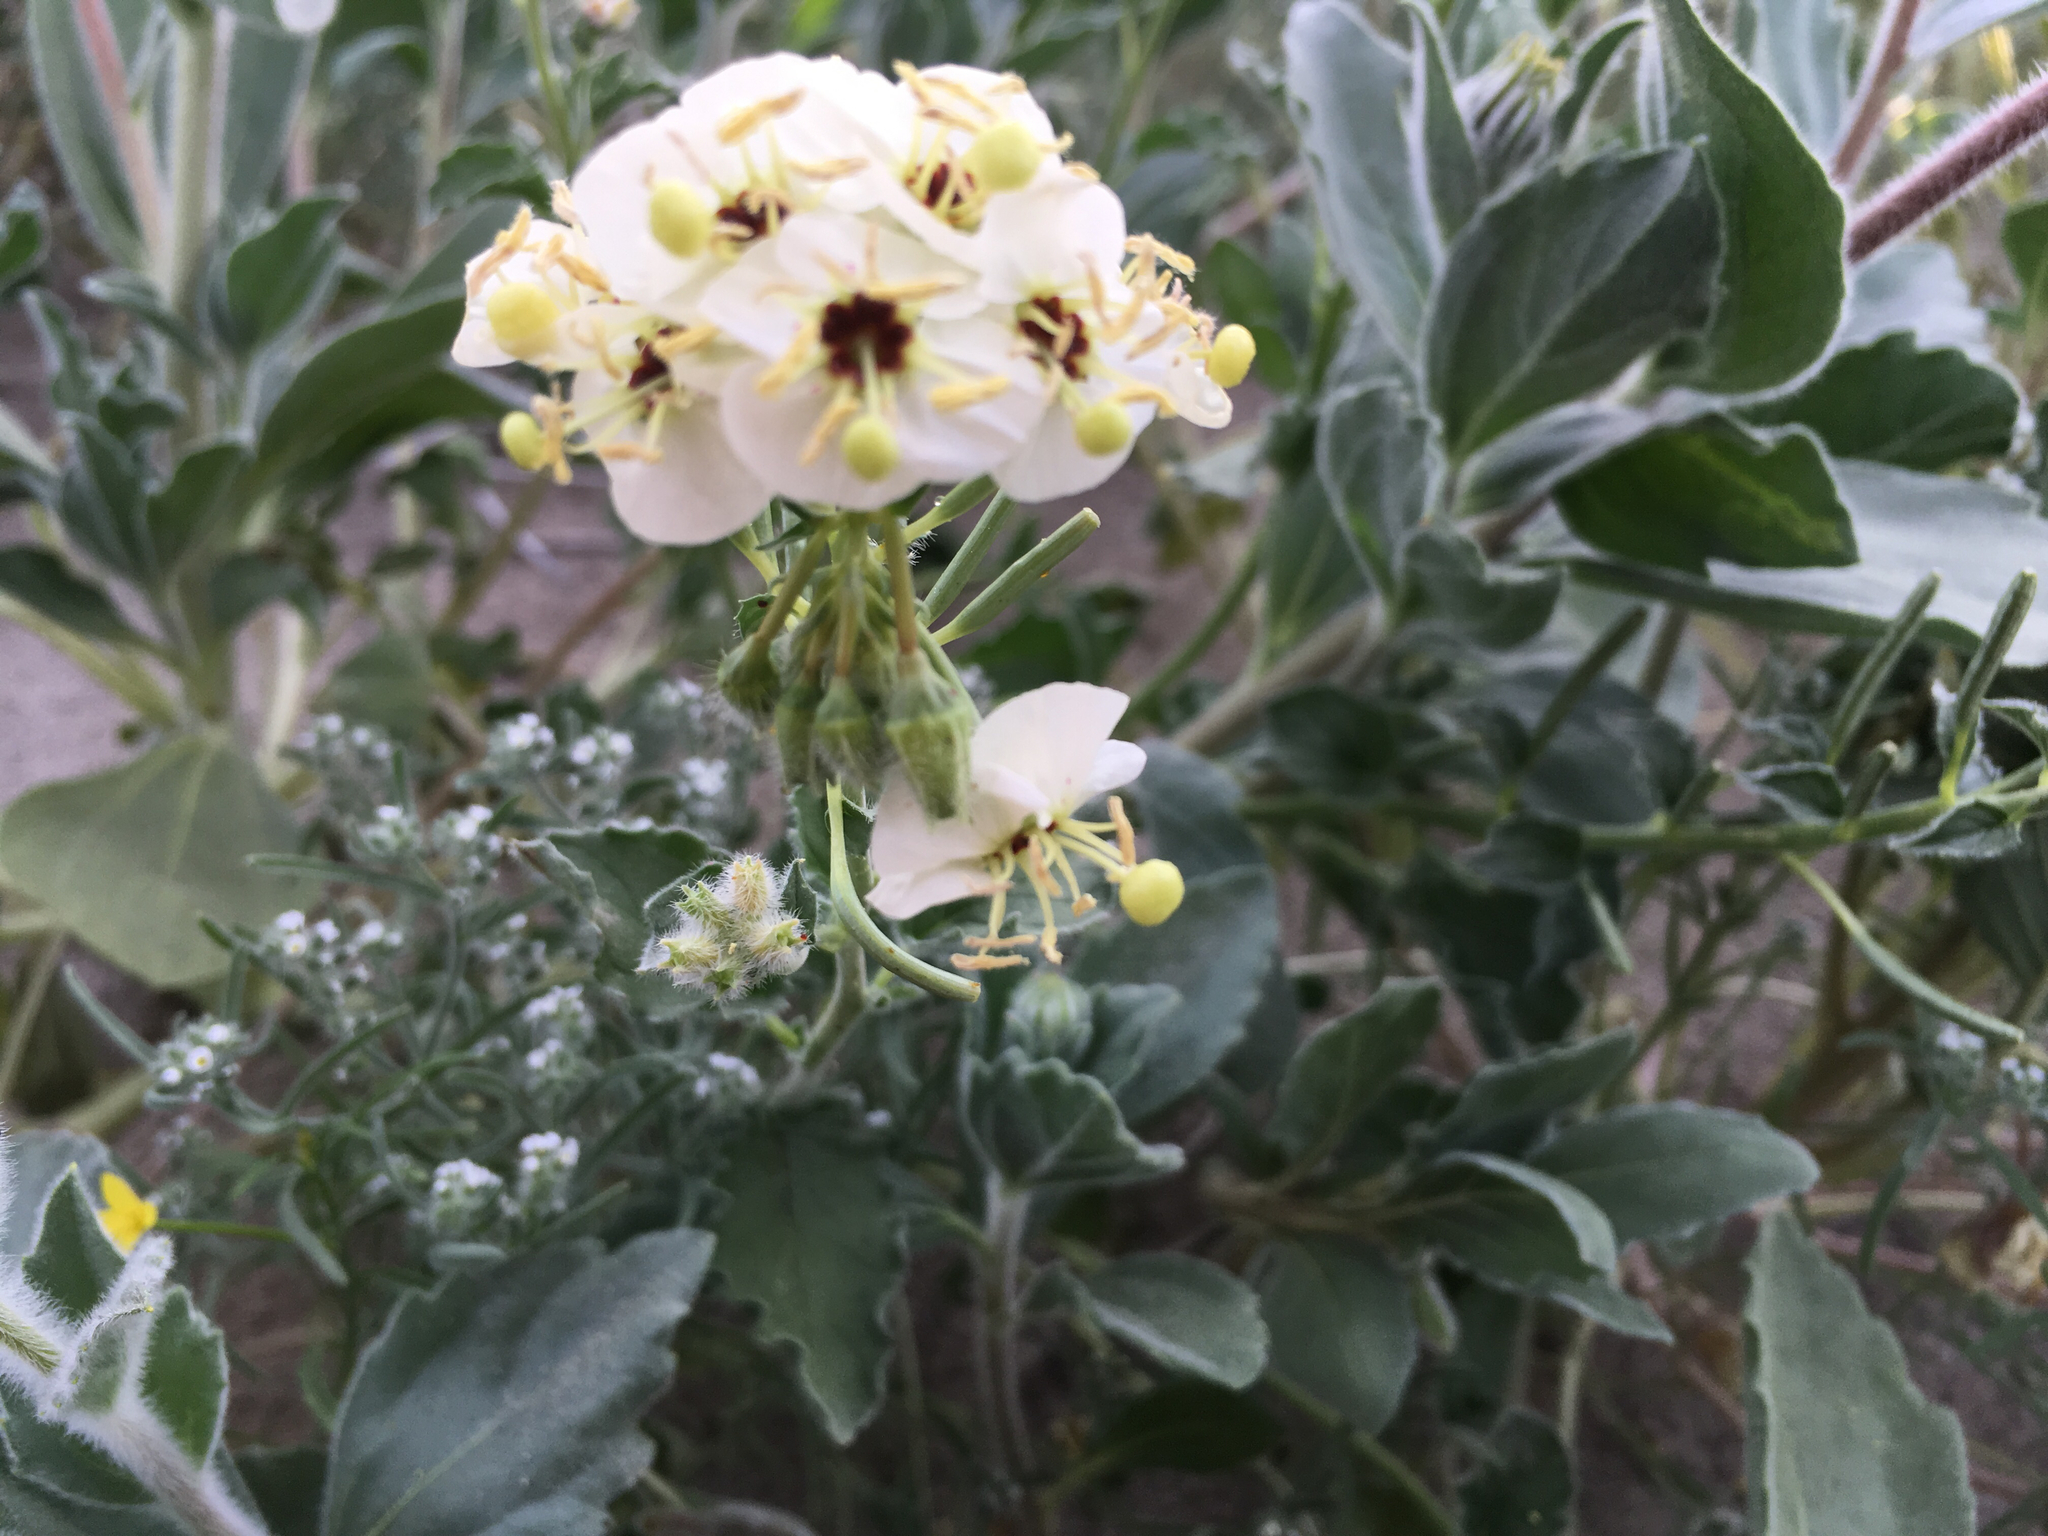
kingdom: Plantae
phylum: Tracheophyta
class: Magnoliopsida
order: Myrtales
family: Onagraceae
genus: Chylismia
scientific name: Chylismia claviformis
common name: Browneyes
